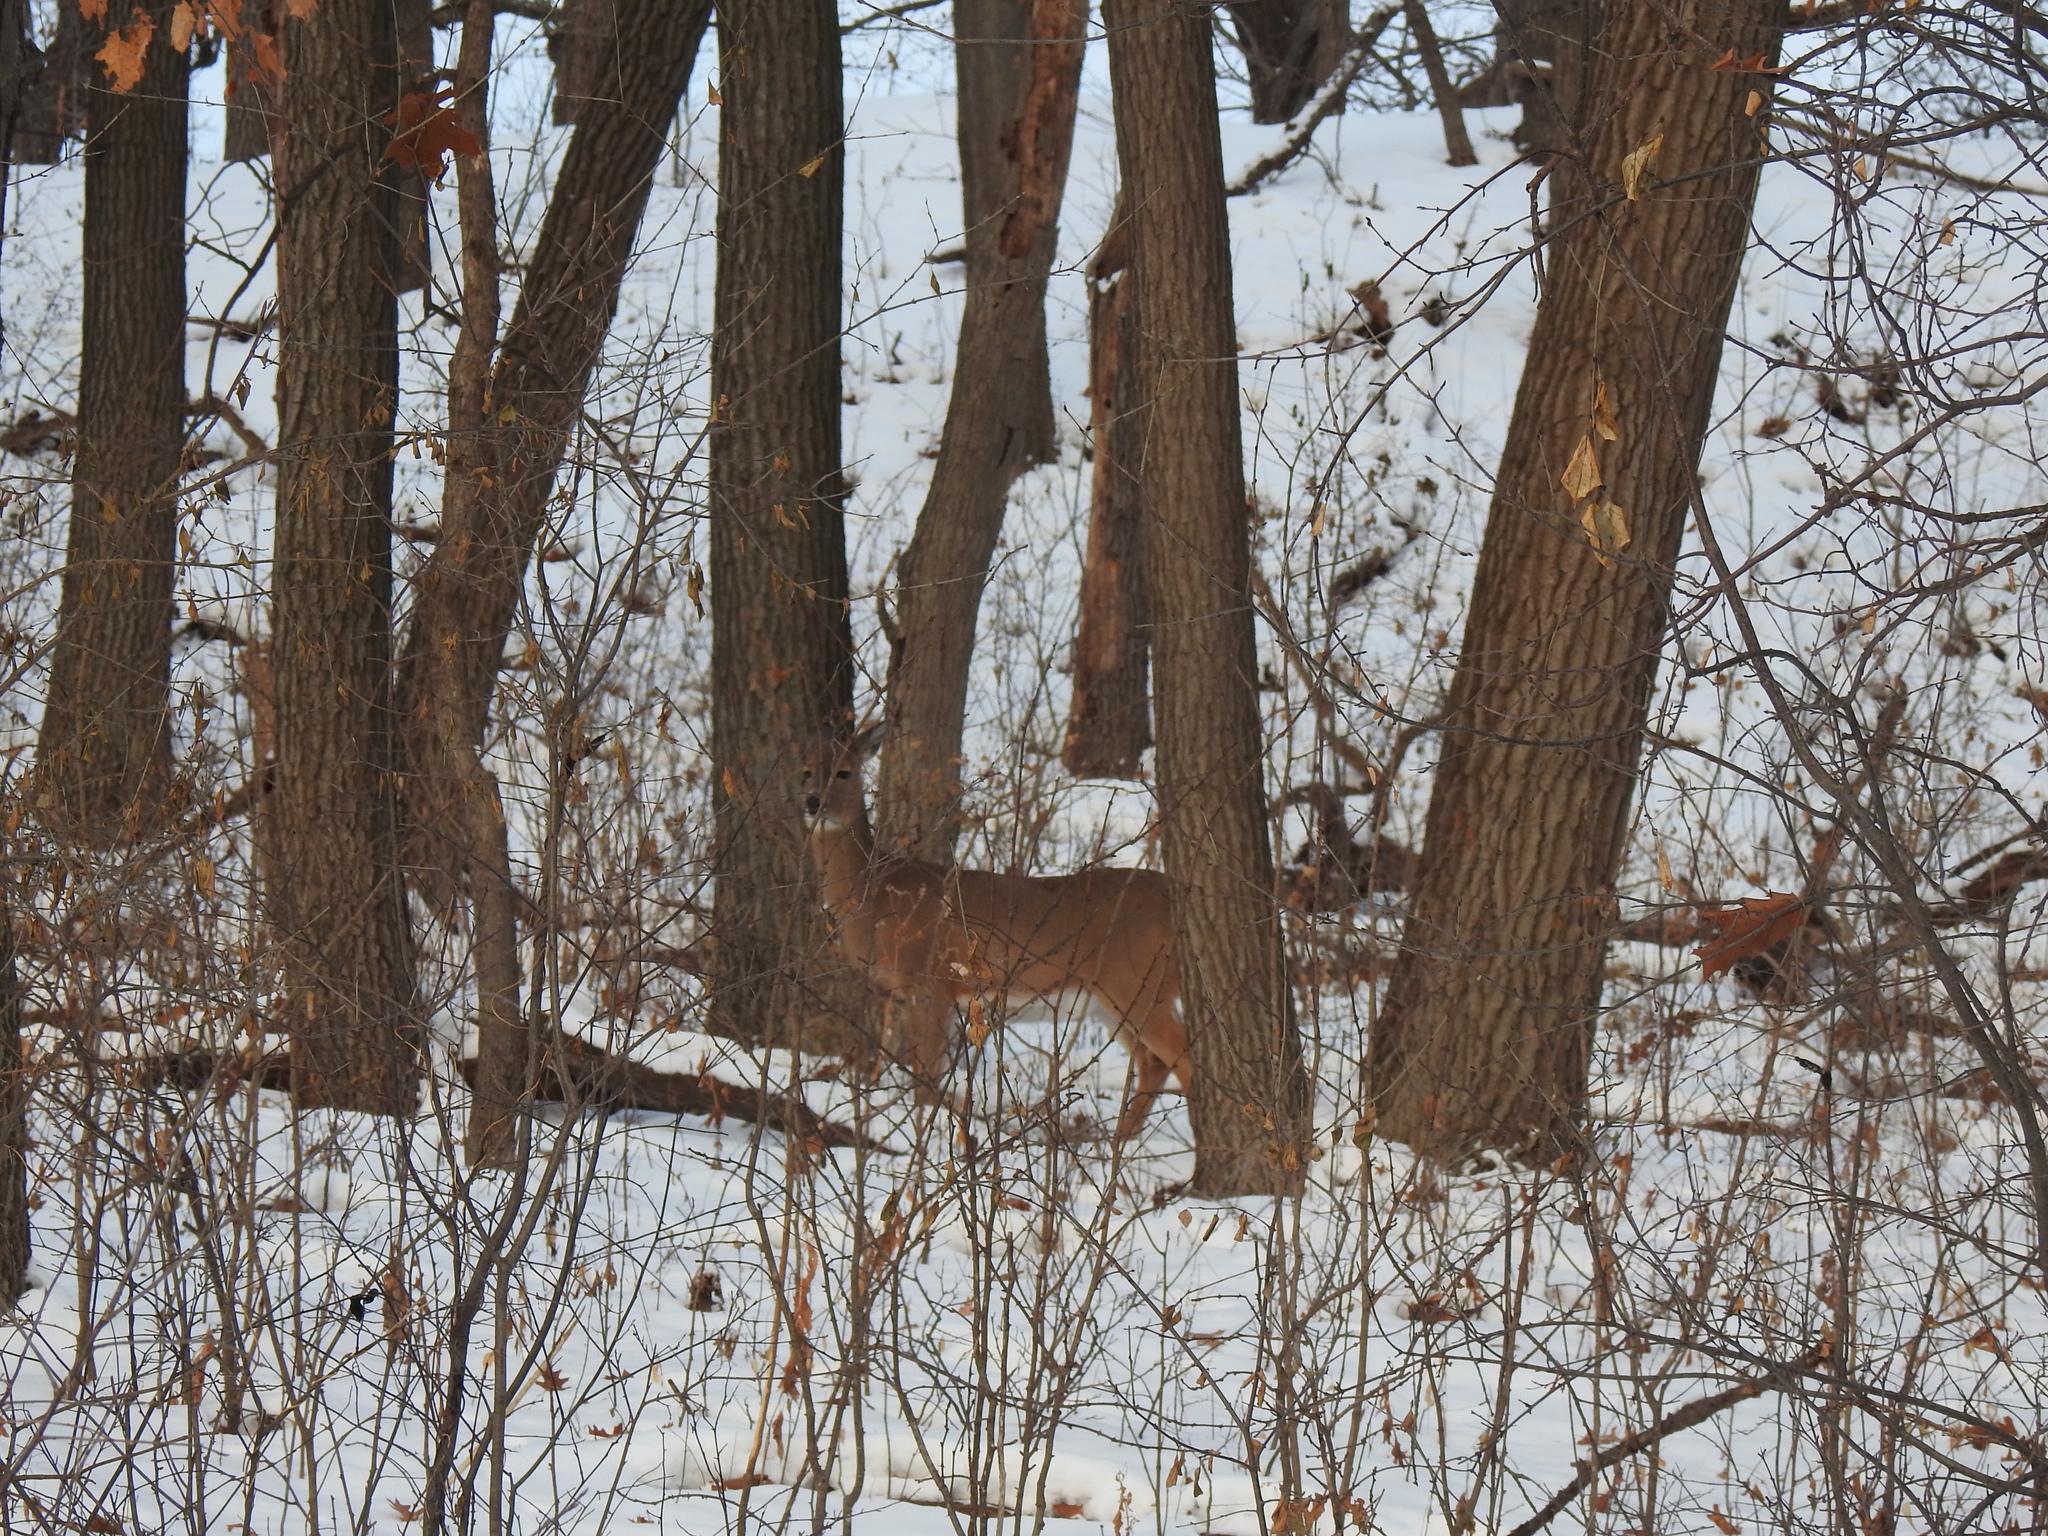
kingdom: Animalia
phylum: Chordata
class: Mammalia
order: Artiodactyla
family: Cervidae
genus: Odocoileus
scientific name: Odocoileus virginianus
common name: White-tailed deer
